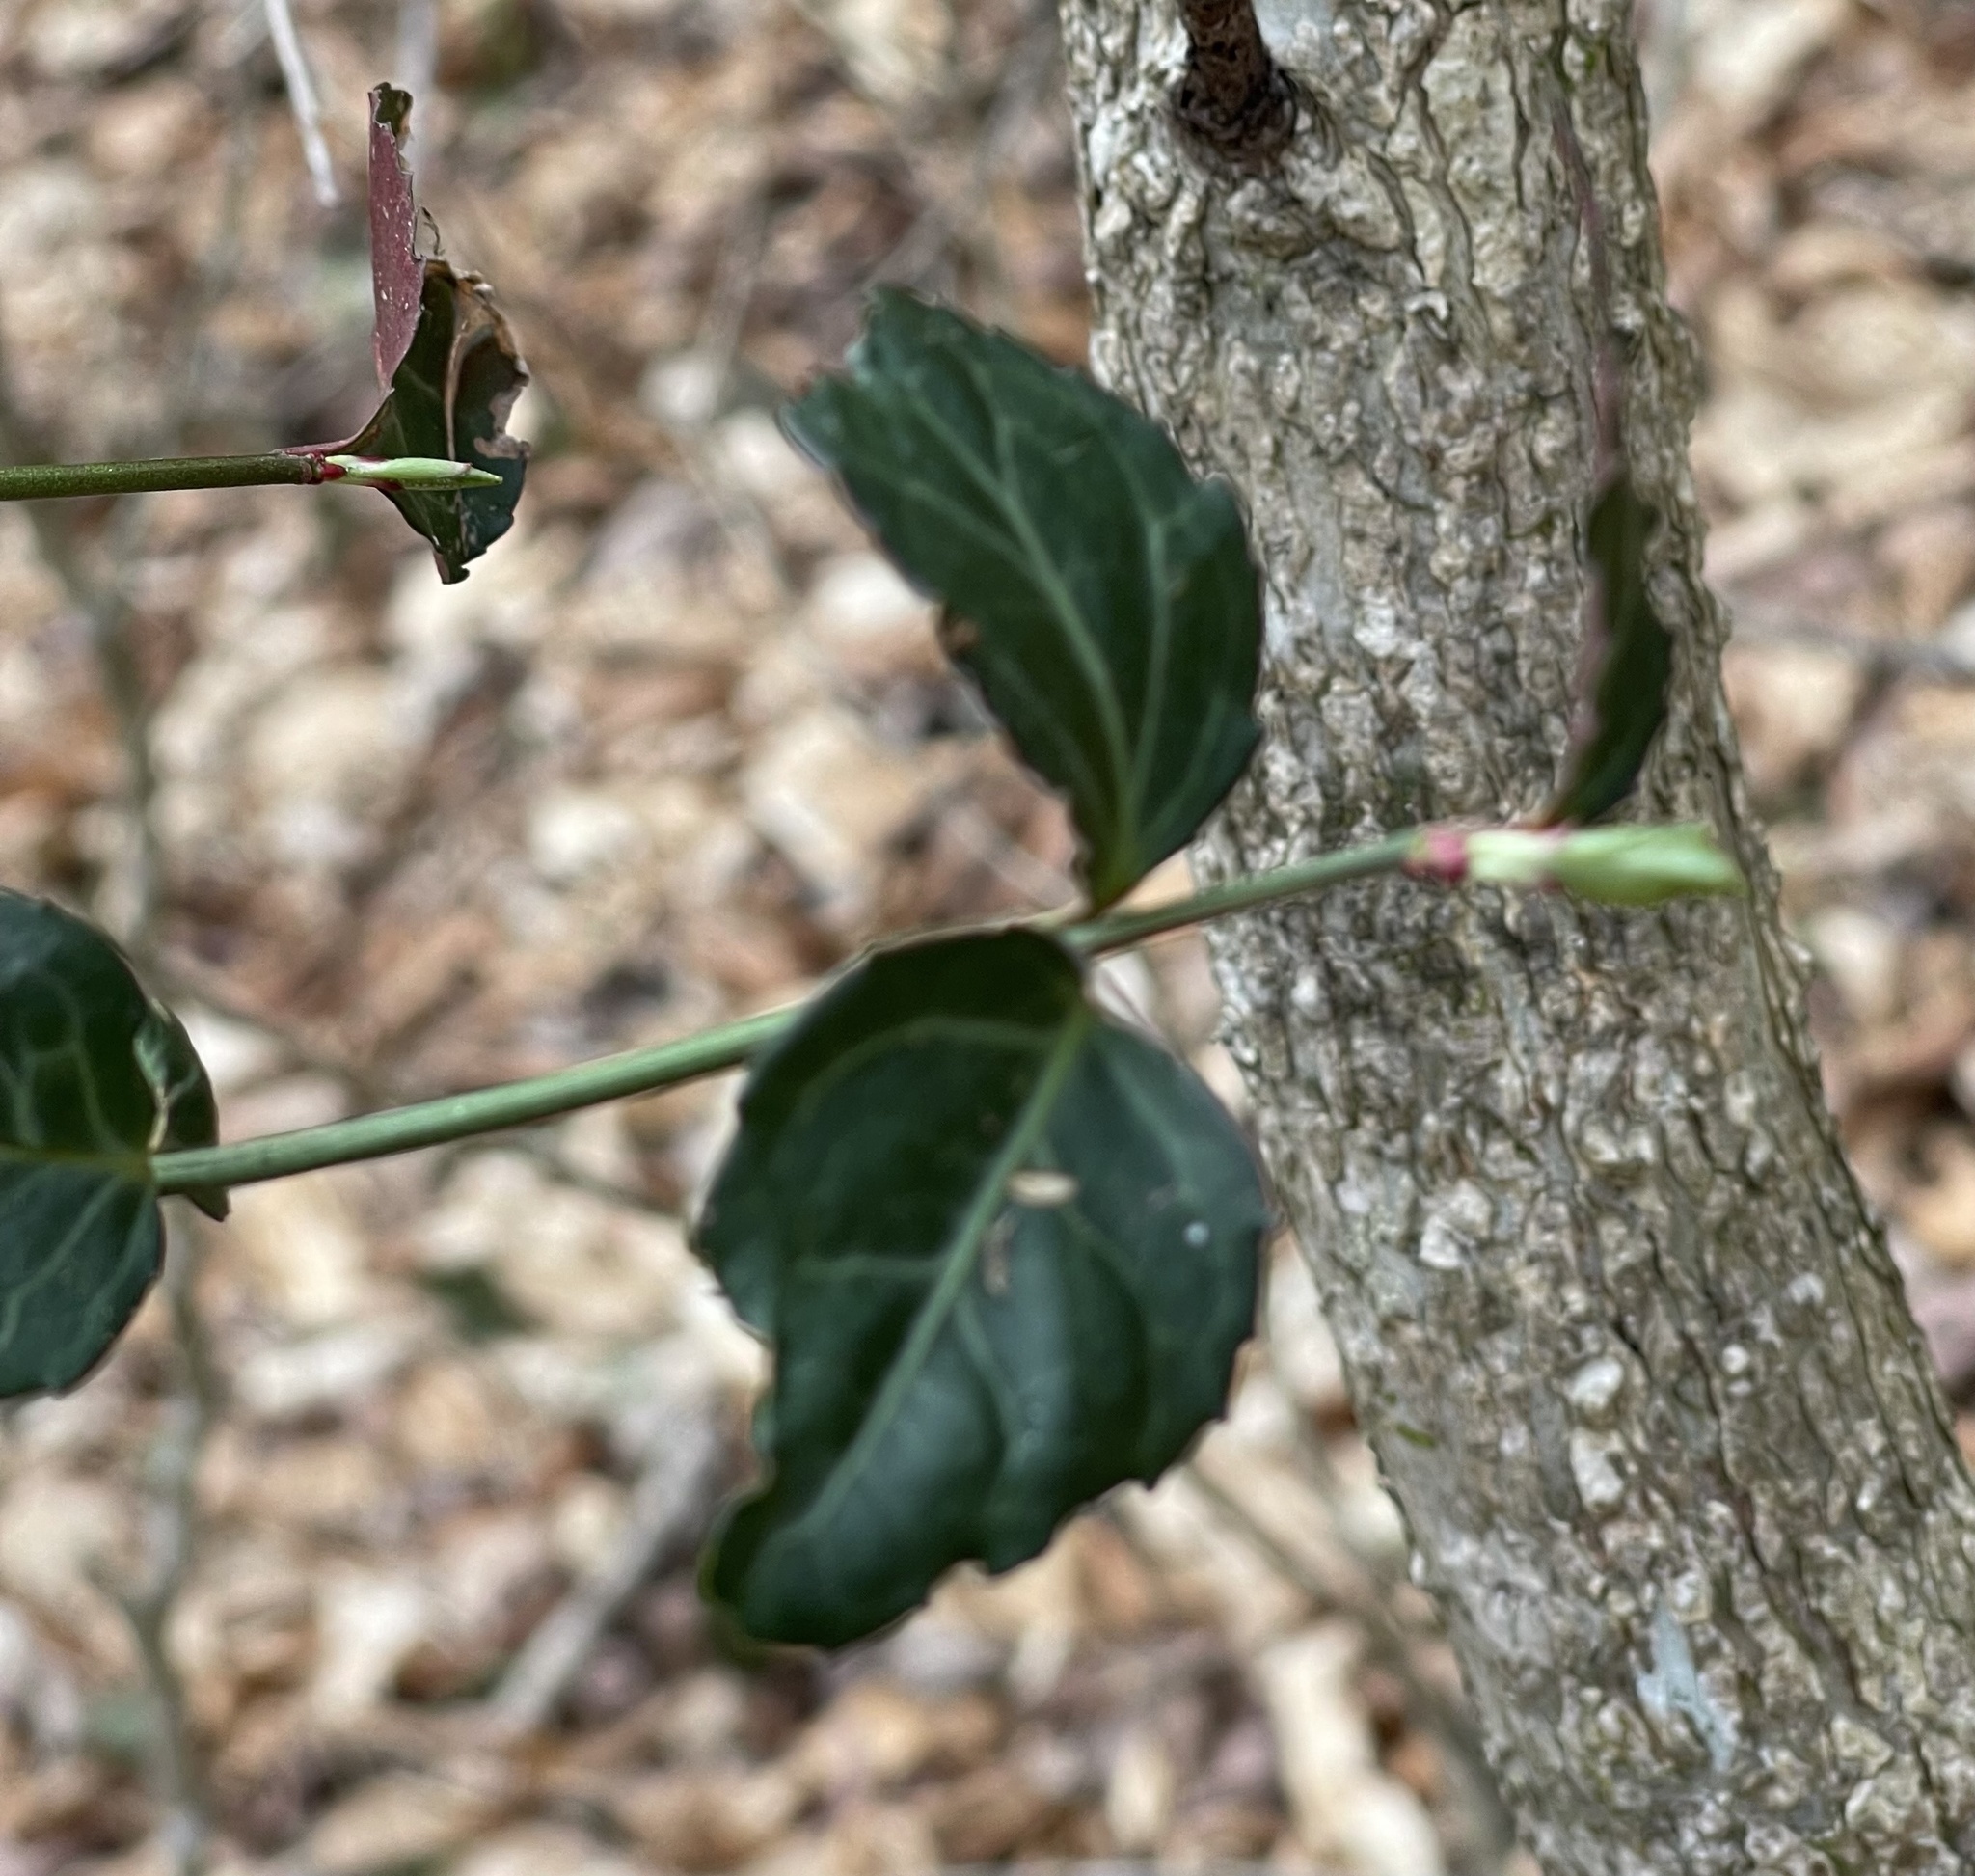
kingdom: Plantae
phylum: Tracheophyta
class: Magnoliopsida
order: Celastrales
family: Celastraceae
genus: Euonymus
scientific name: Euonymus fortunei
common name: Climbing euonymus
